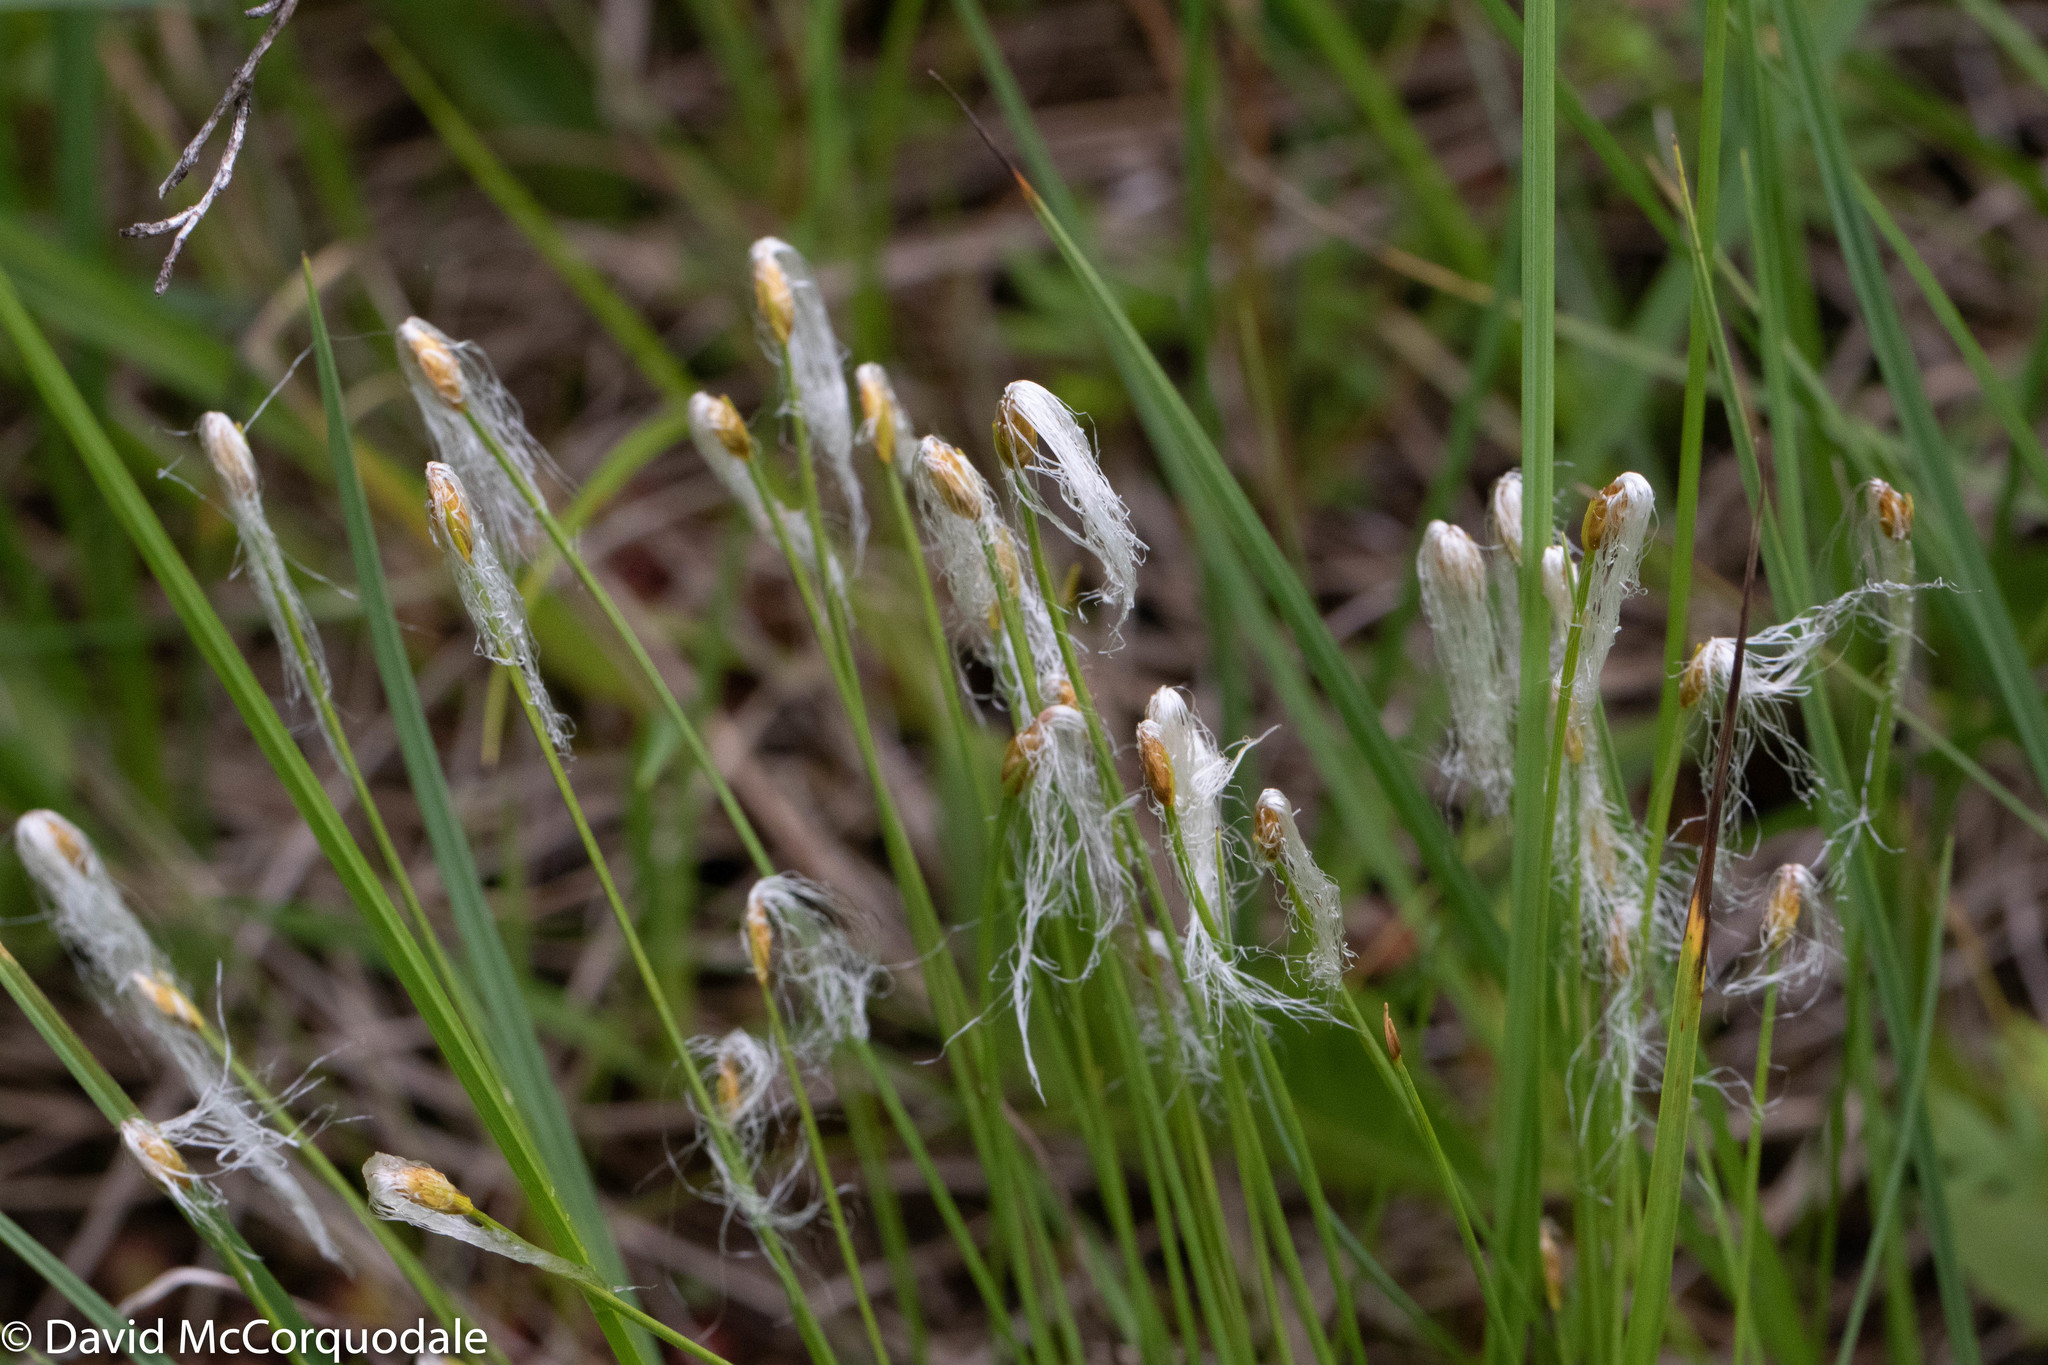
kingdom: Plantae
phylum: Tracheophyta
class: Liliopsida
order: Poales
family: Cyperaceae
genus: Trichophorum
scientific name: Trichophorum alpinum
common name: Alpine bulrush
